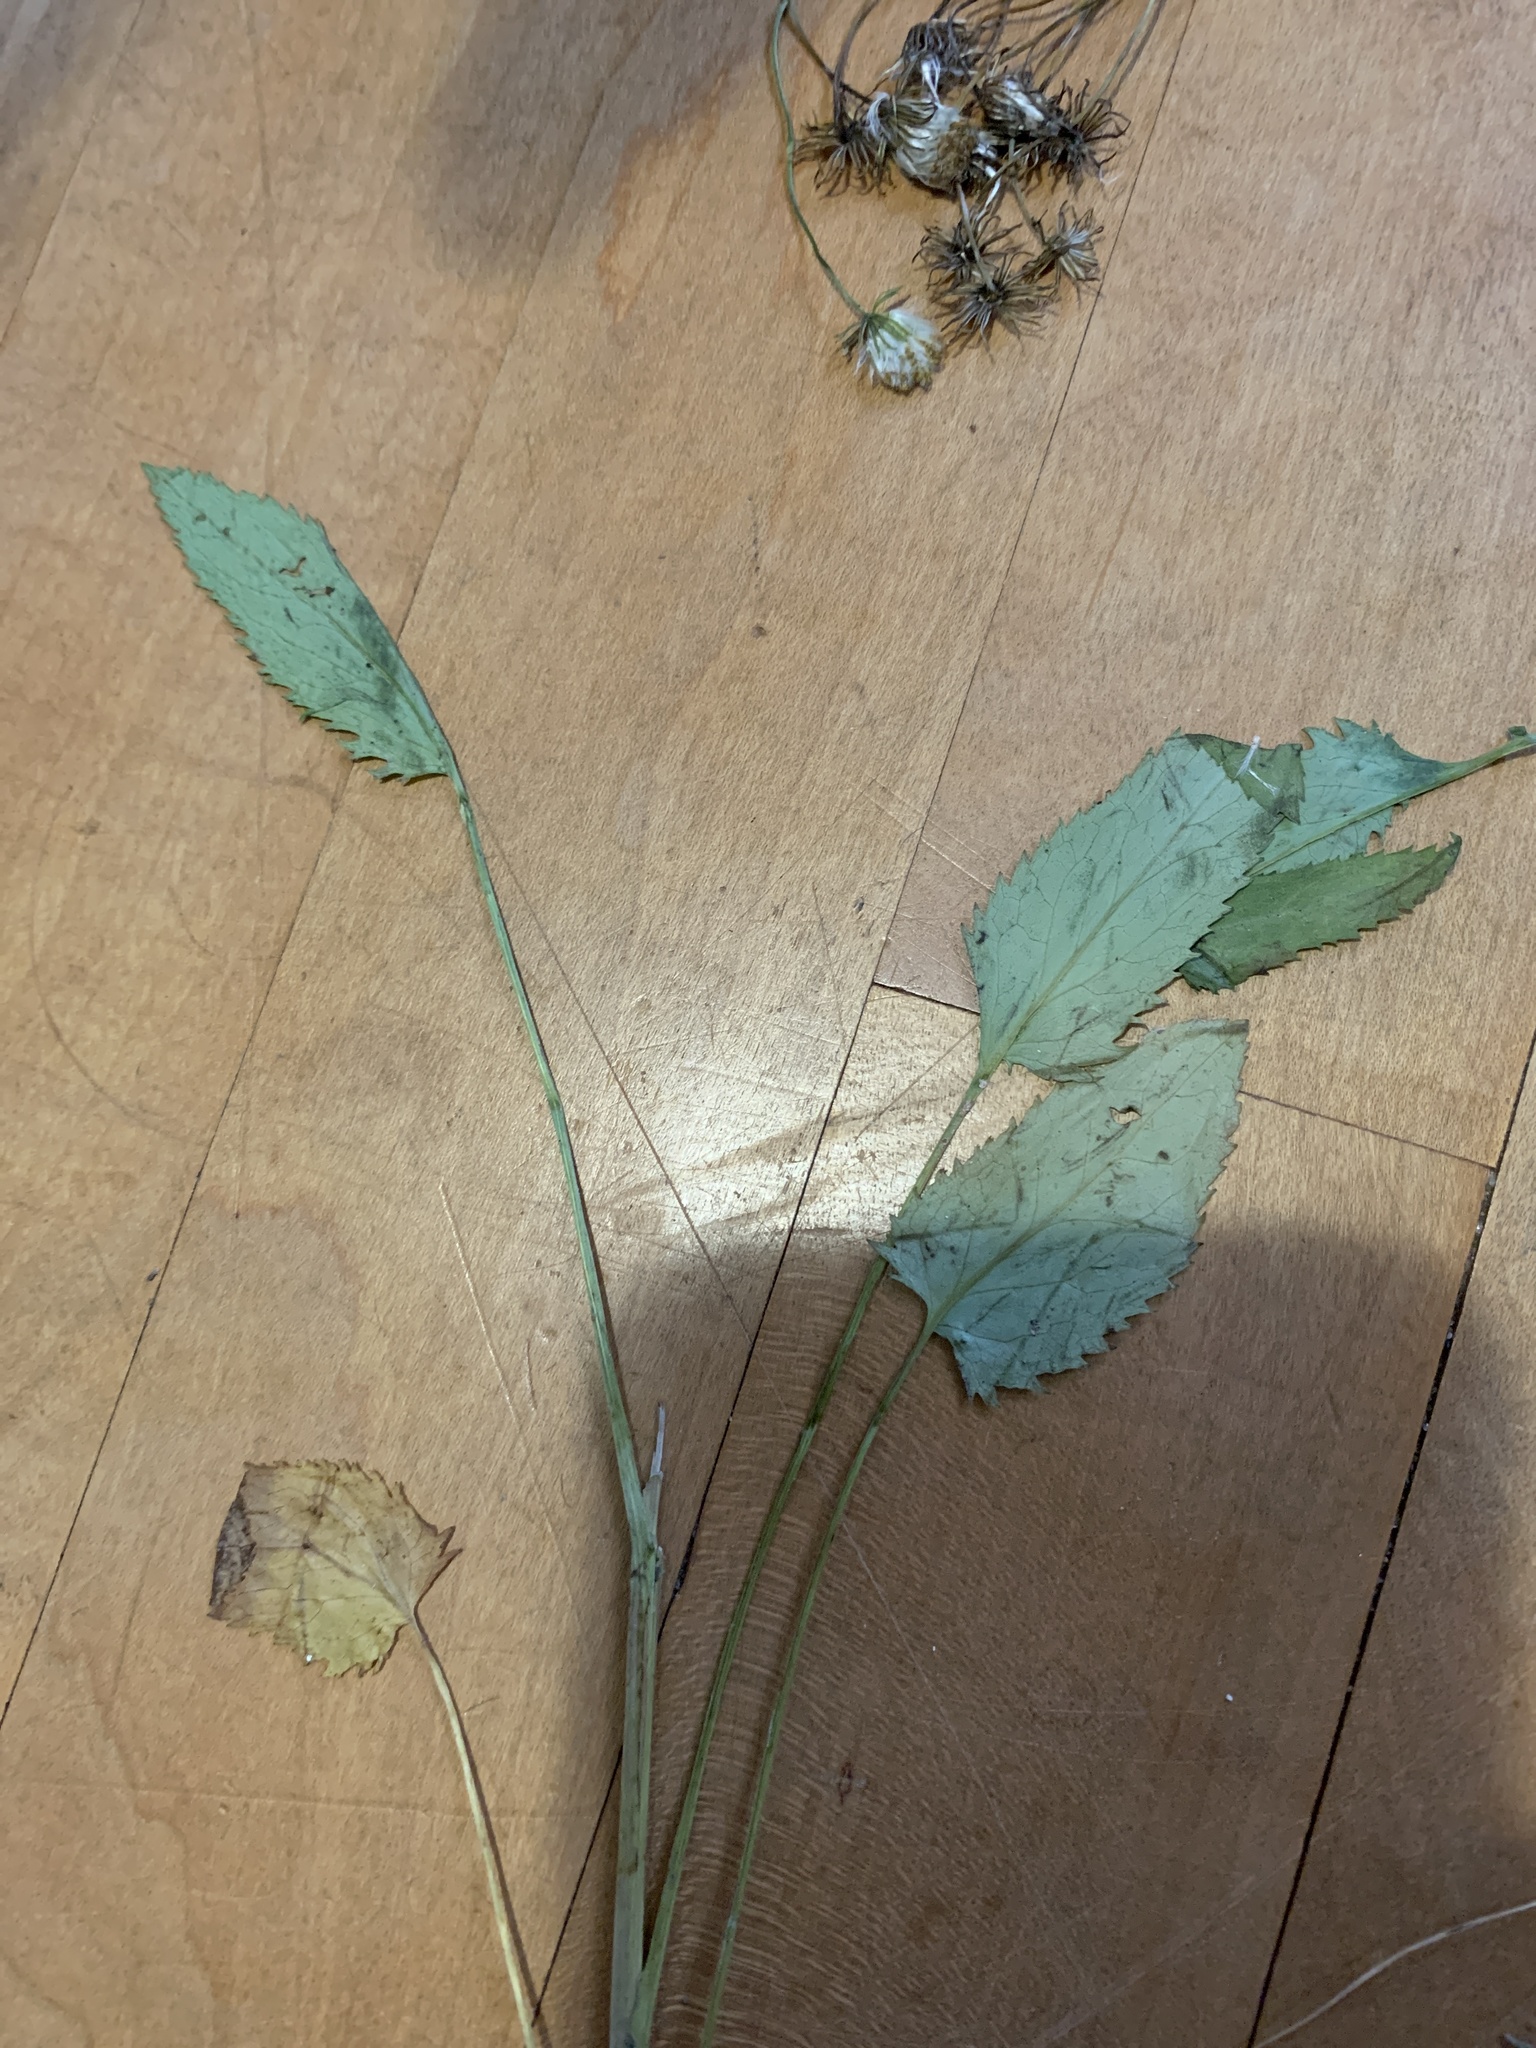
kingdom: Plantae
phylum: Tracheophyta
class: Magnoliopsida
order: Asterales
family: Asteraceae
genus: Packera
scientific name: Packera schweinitziana
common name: Schweinitz's ragwort
